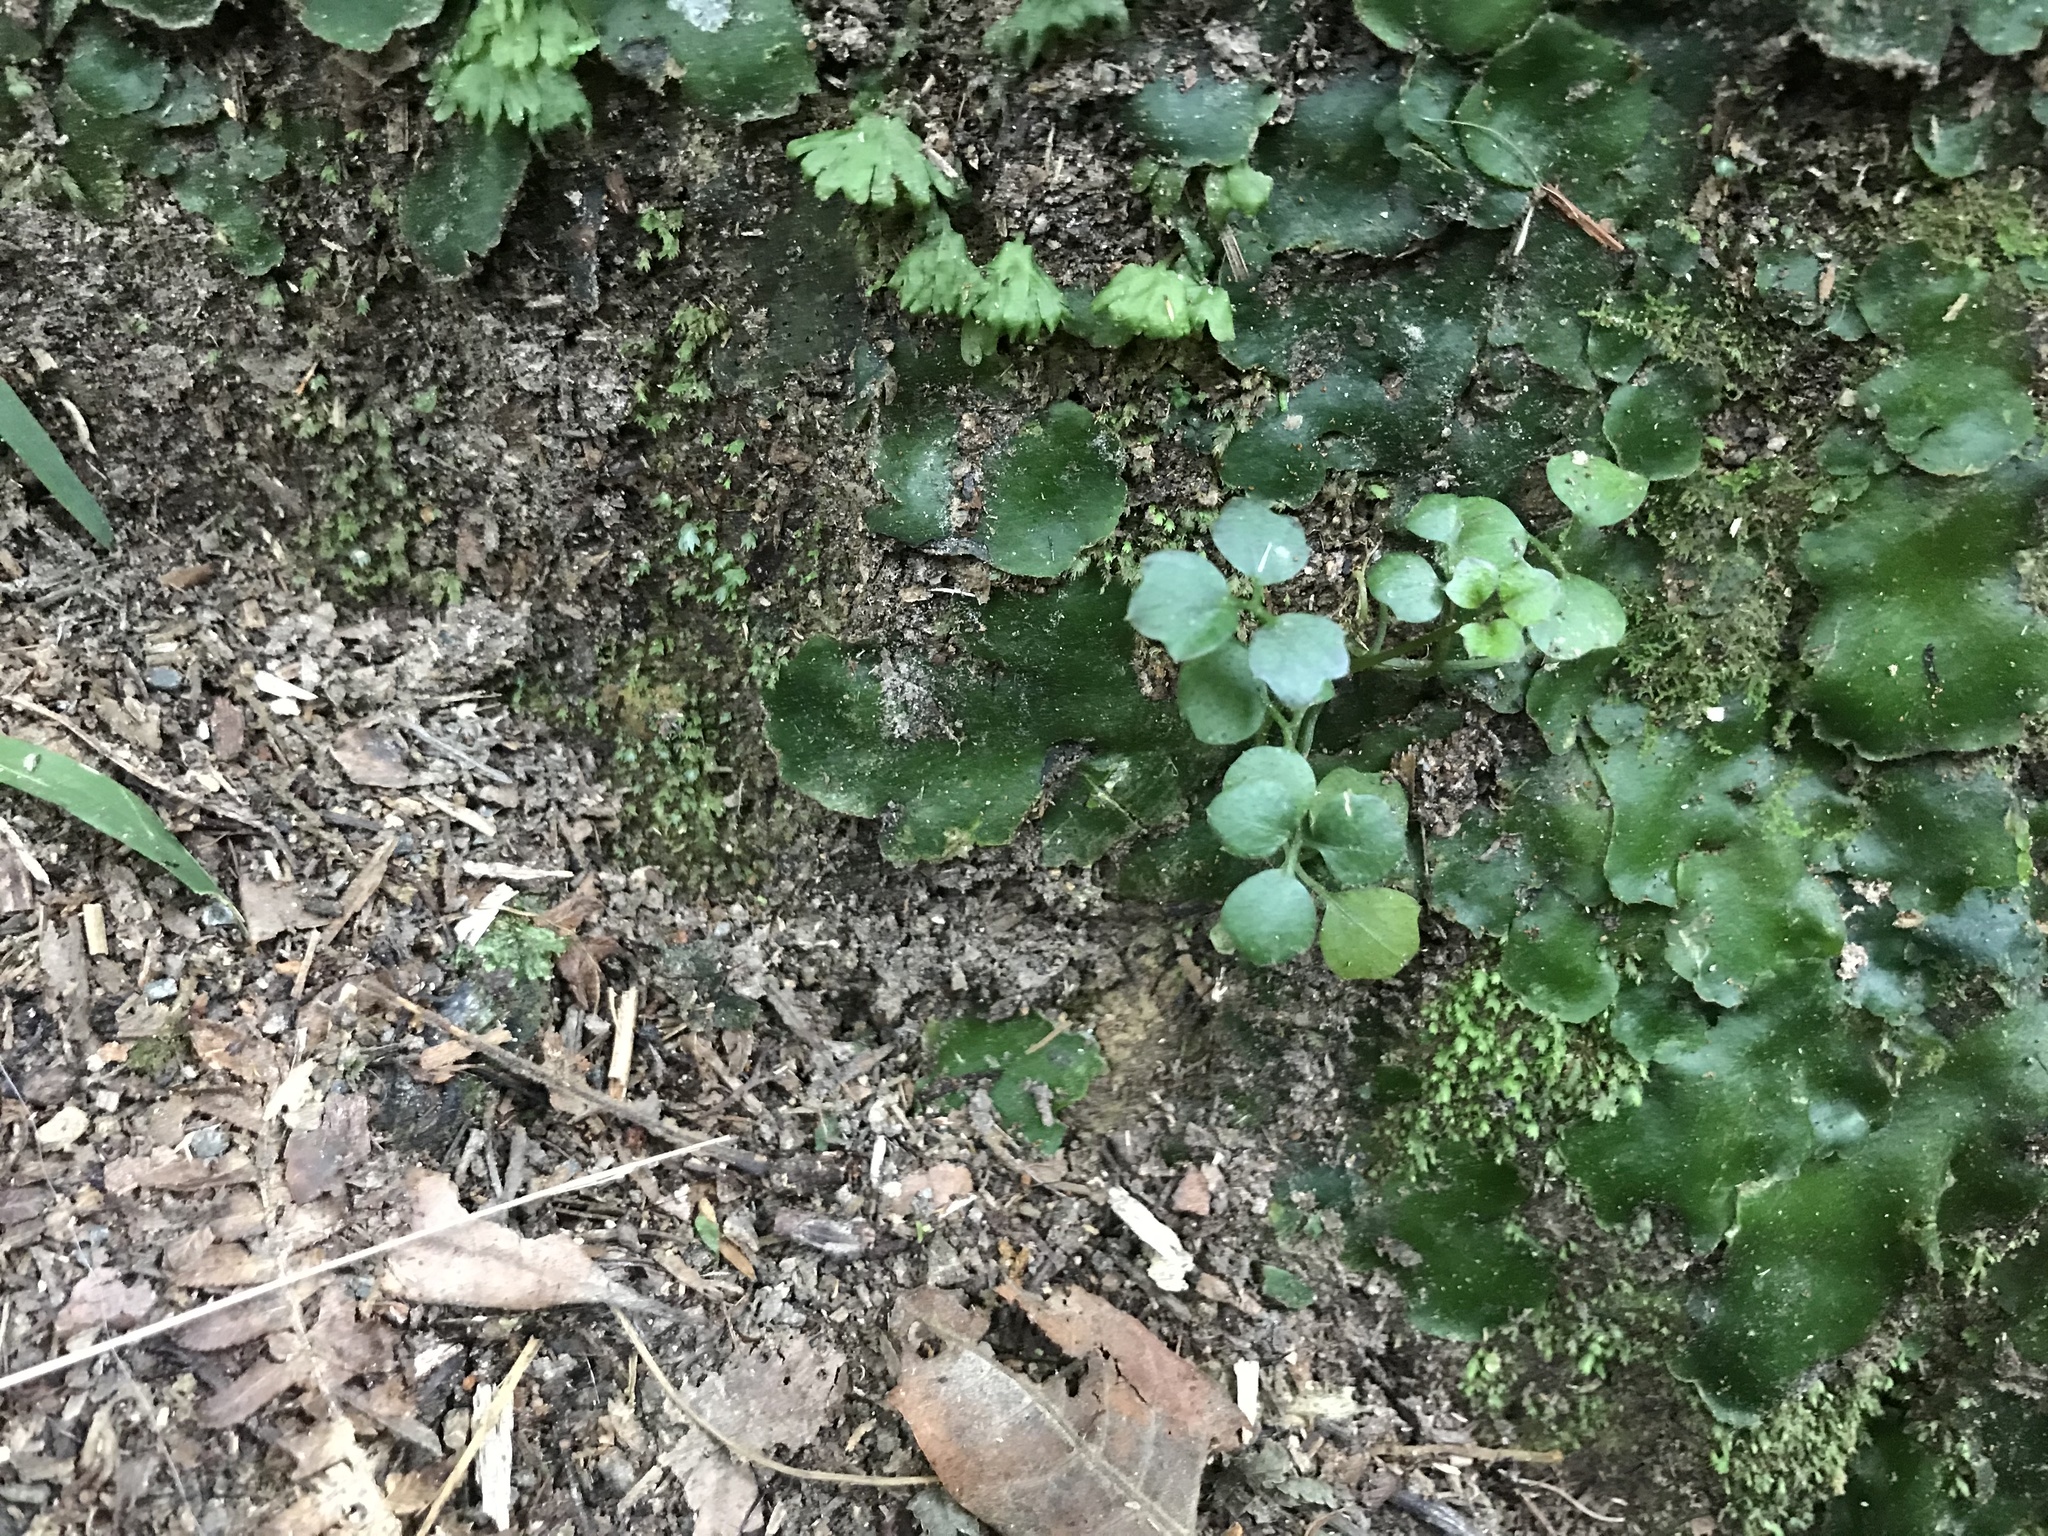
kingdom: Plantae
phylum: Marchantiophyta
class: Marchantiopsida
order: Marchantiales
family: Monocleaceae
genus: Monoclea
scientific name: Monoclea forsteri
